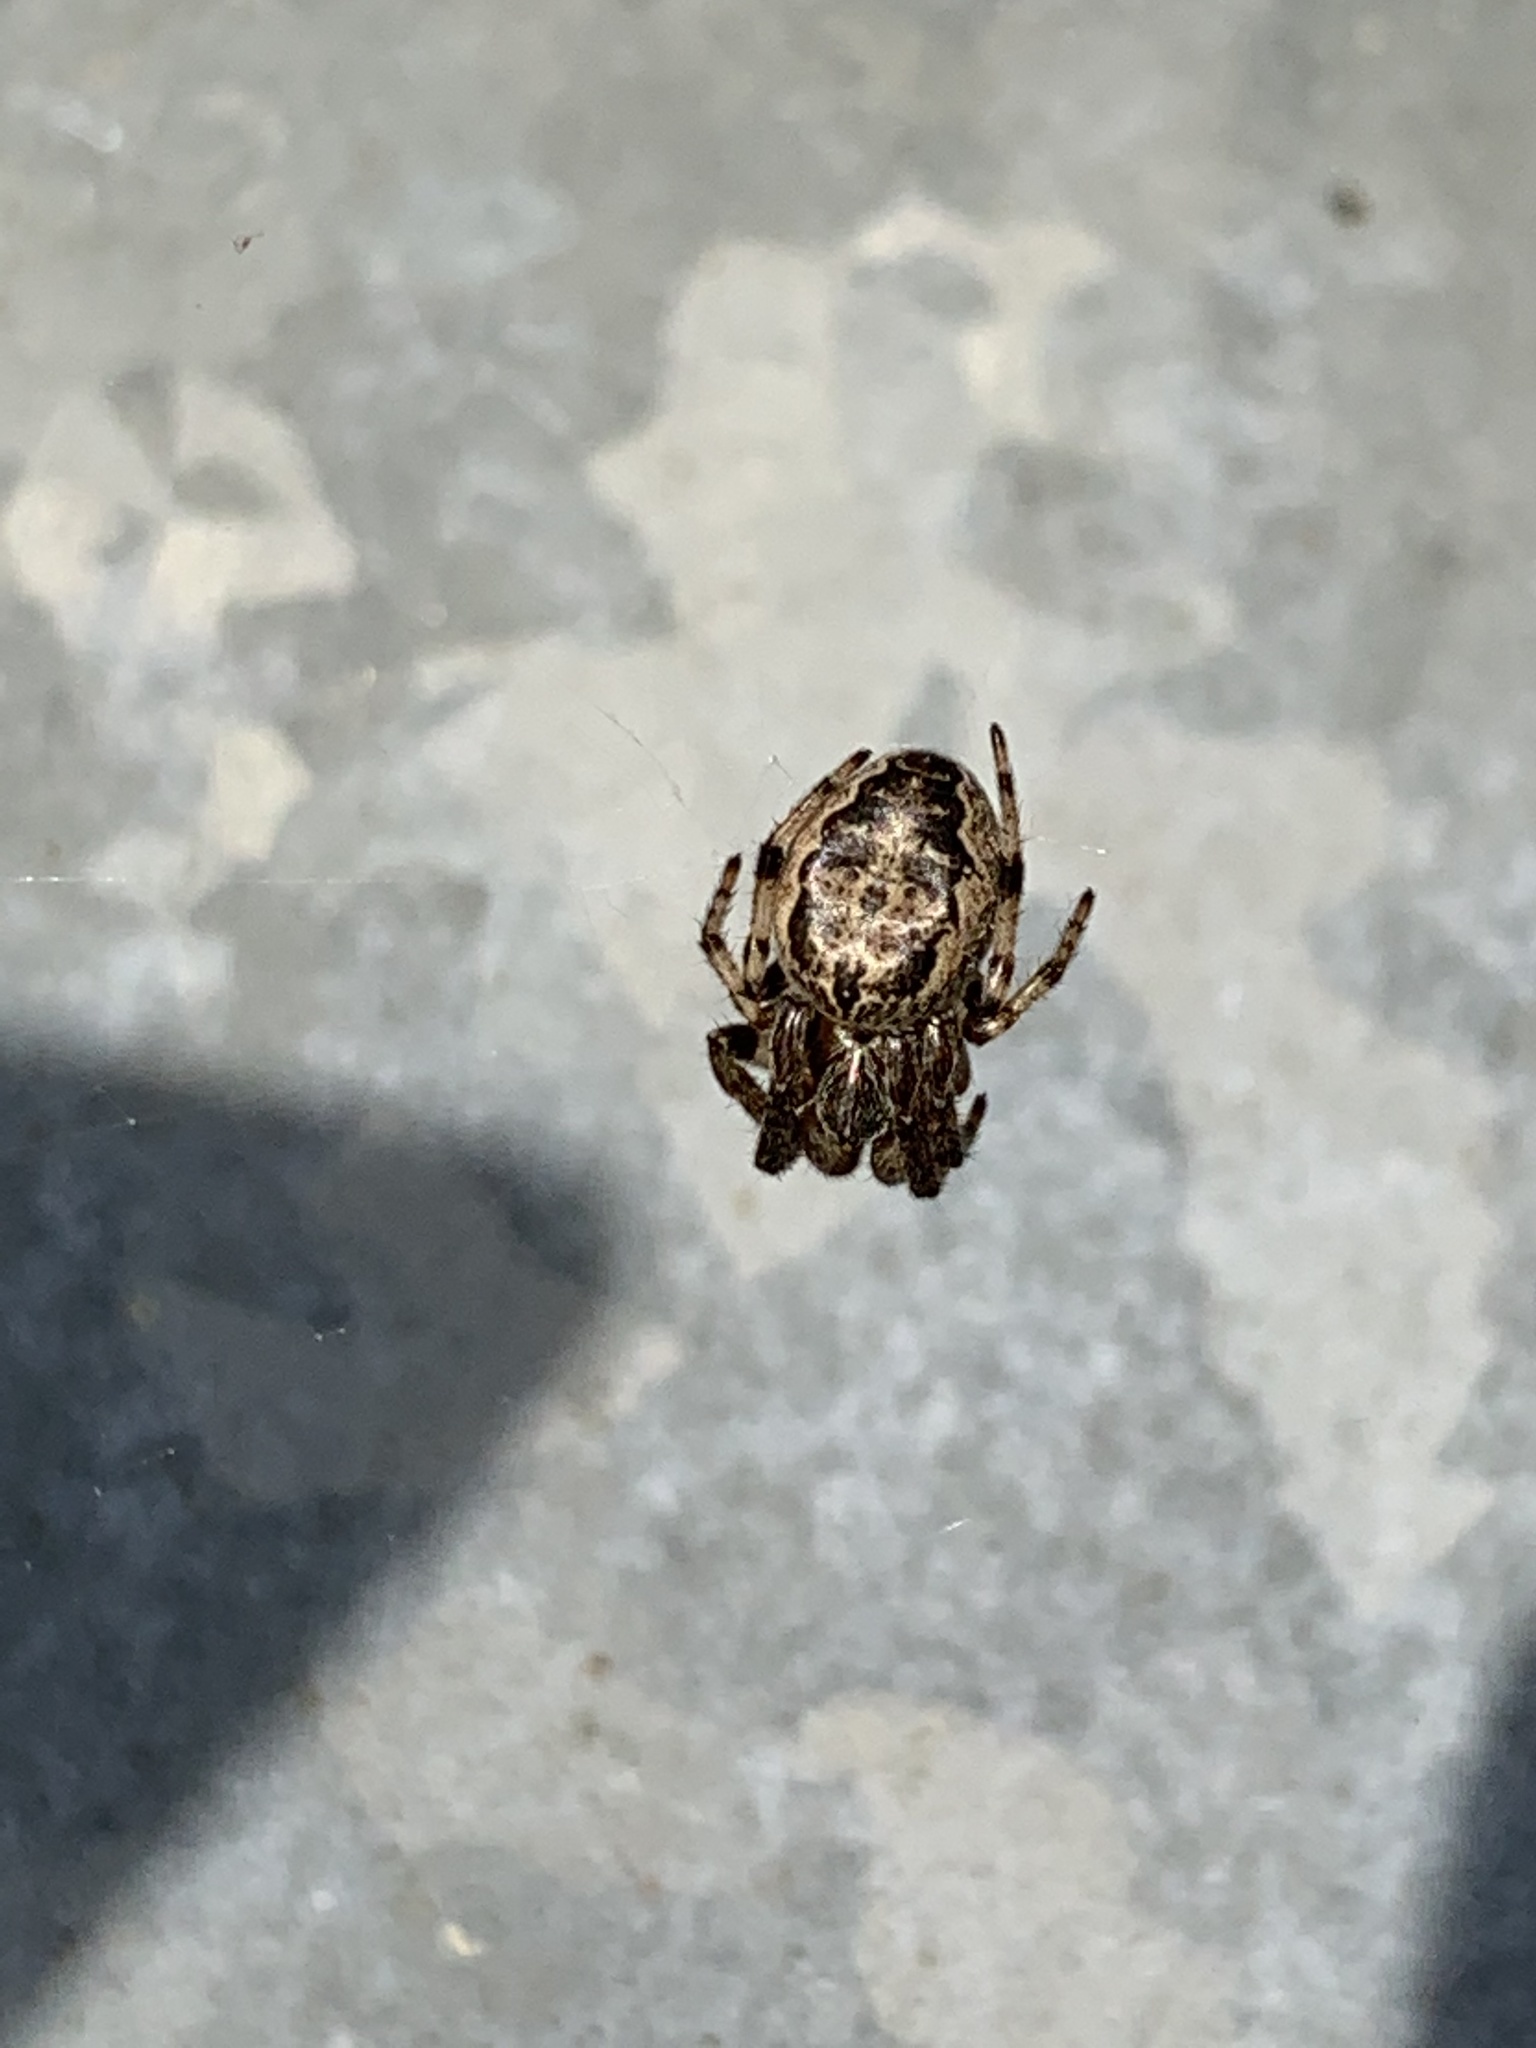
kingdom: Animalia
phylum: Arthropoda
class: Arachnida
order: Araneae
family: Araneidae
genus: Larinioides
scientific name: Larinioides cornutus
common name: Furrow orbweaver
